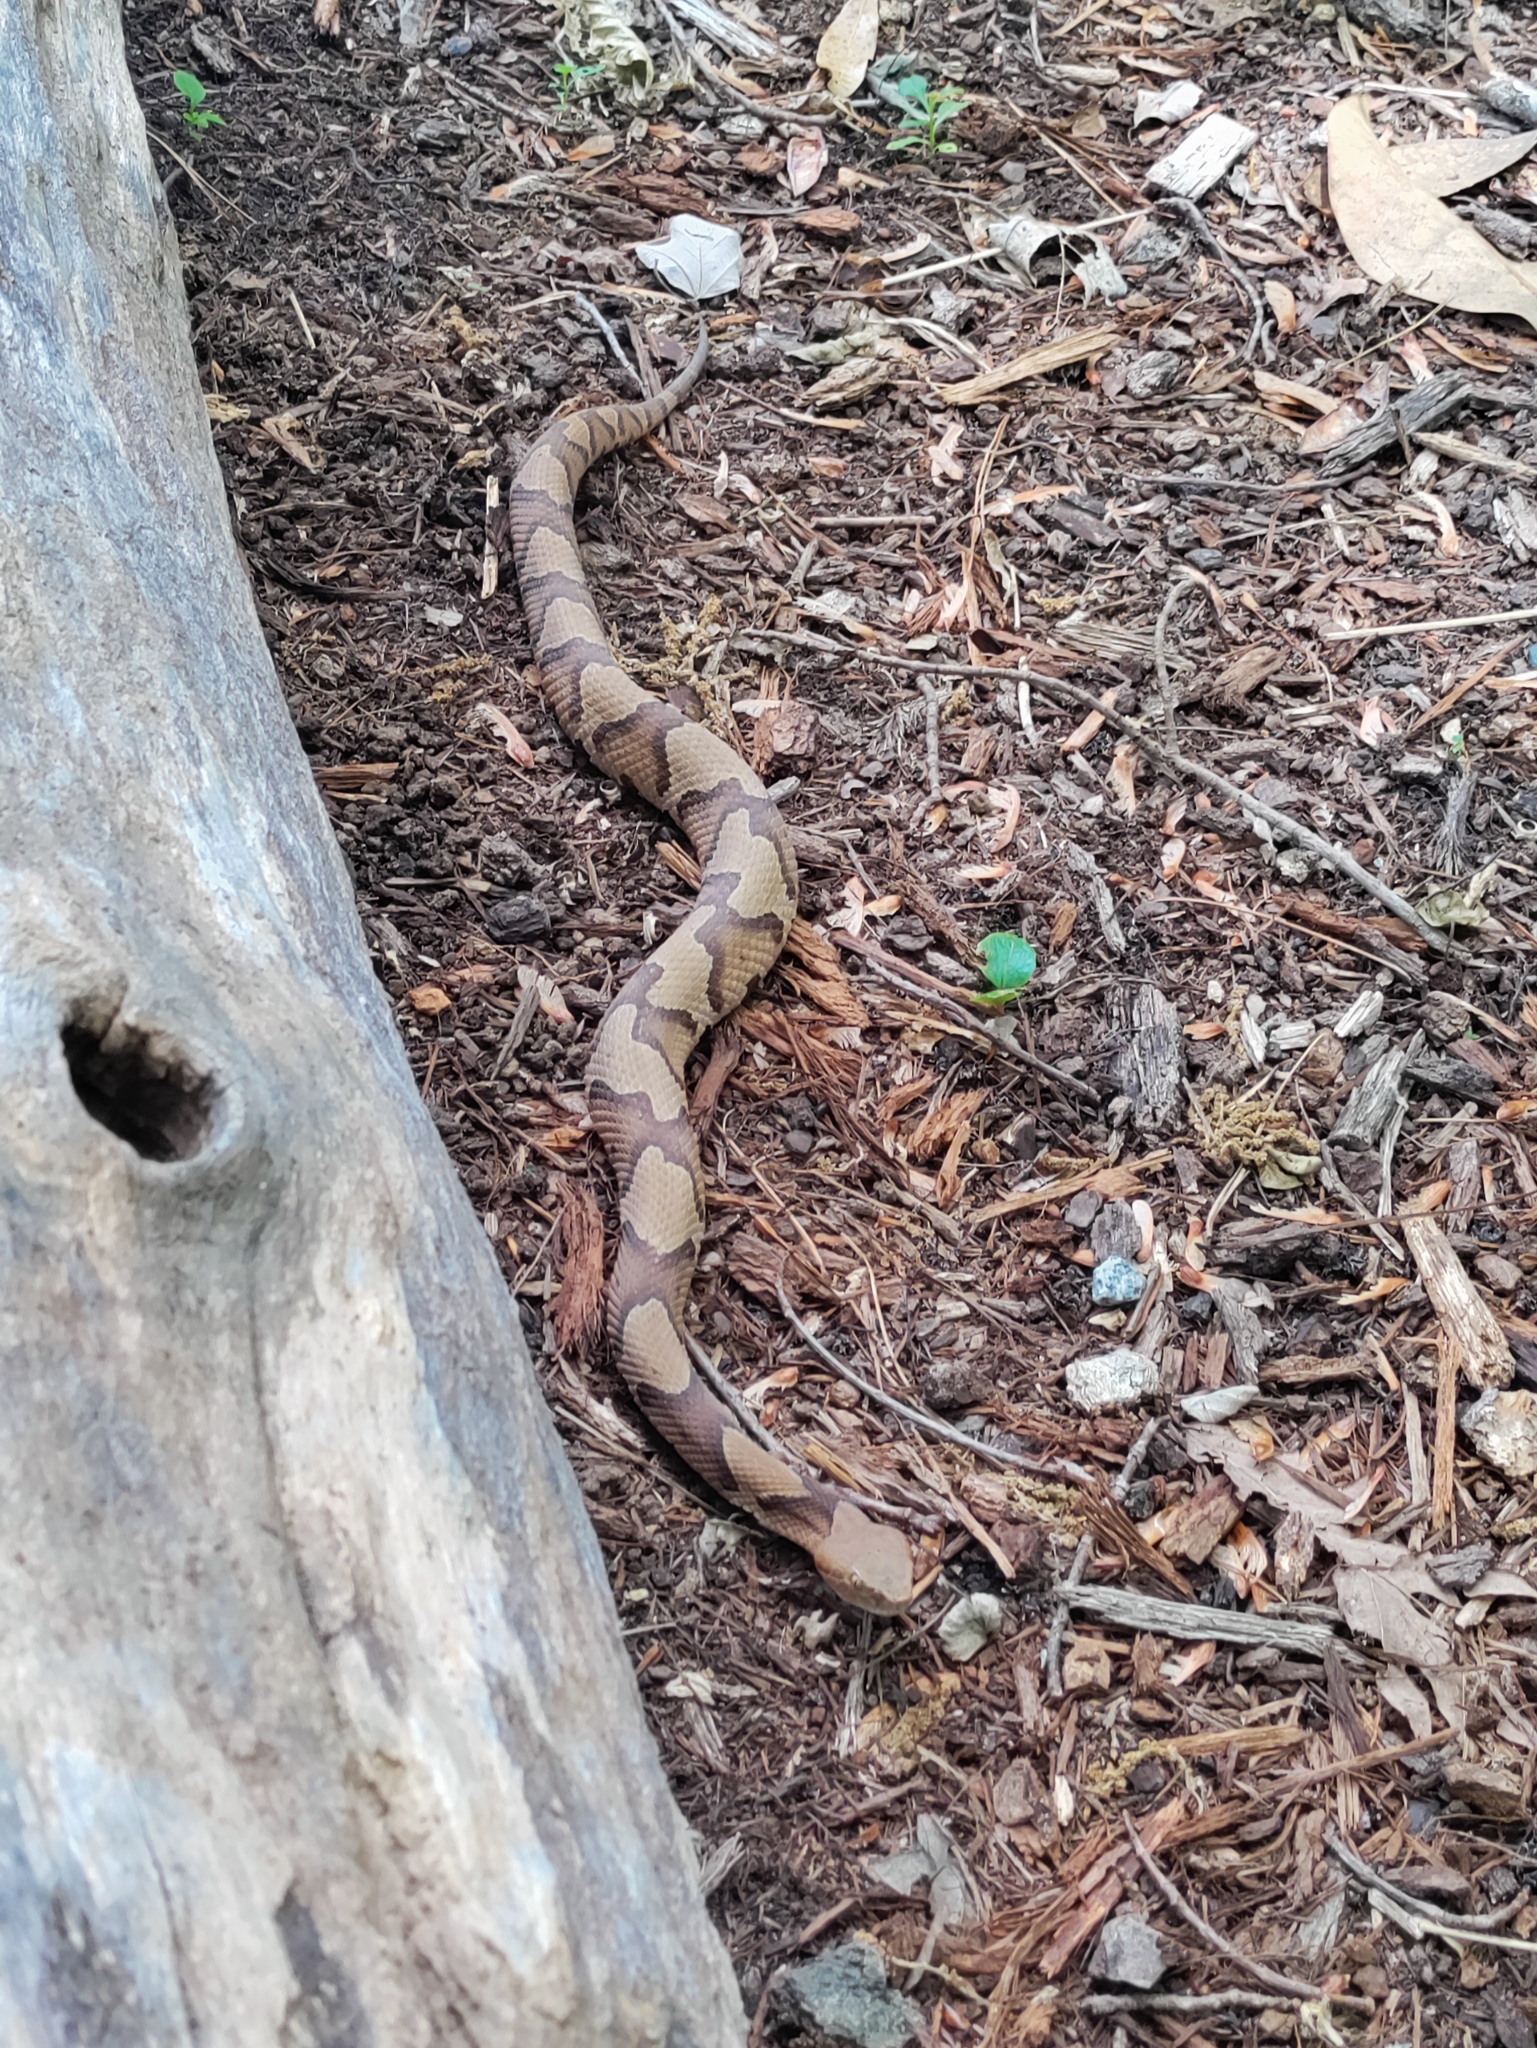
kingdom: Animalia
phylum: Chordata
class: Squamata
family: Viperidae
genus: Agkistrodon
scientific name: Agkistrodon contortrix
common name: Northern copperhead
